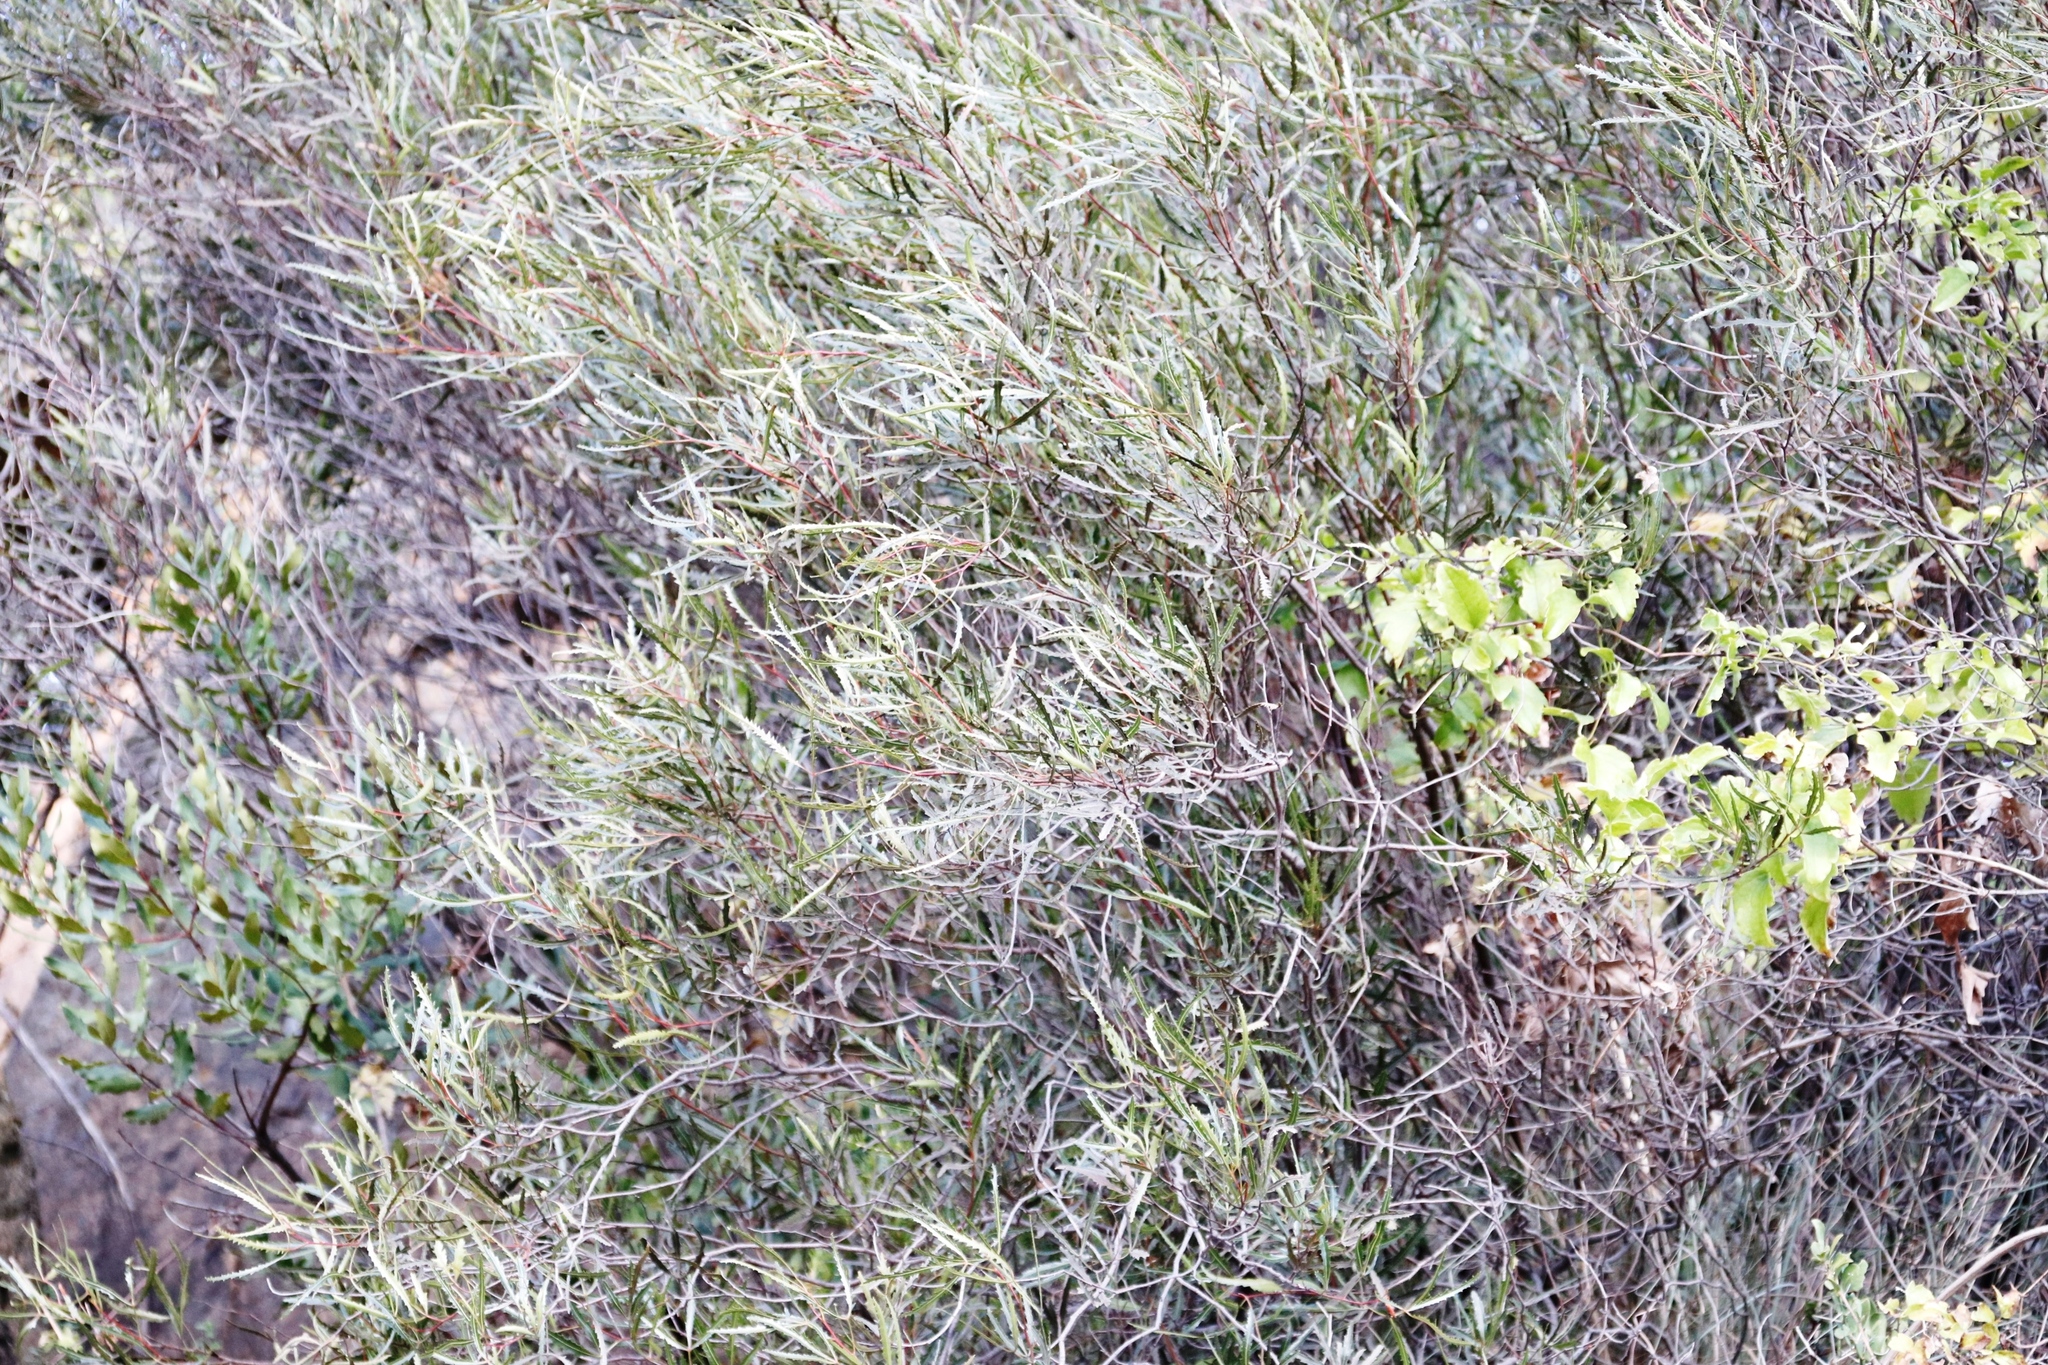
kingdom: Plantae
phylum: Tracheophyta
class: Magnoliopsida
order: Sapindales
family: Anacardiaceae
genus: Searsia
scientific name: Searsia erosa
